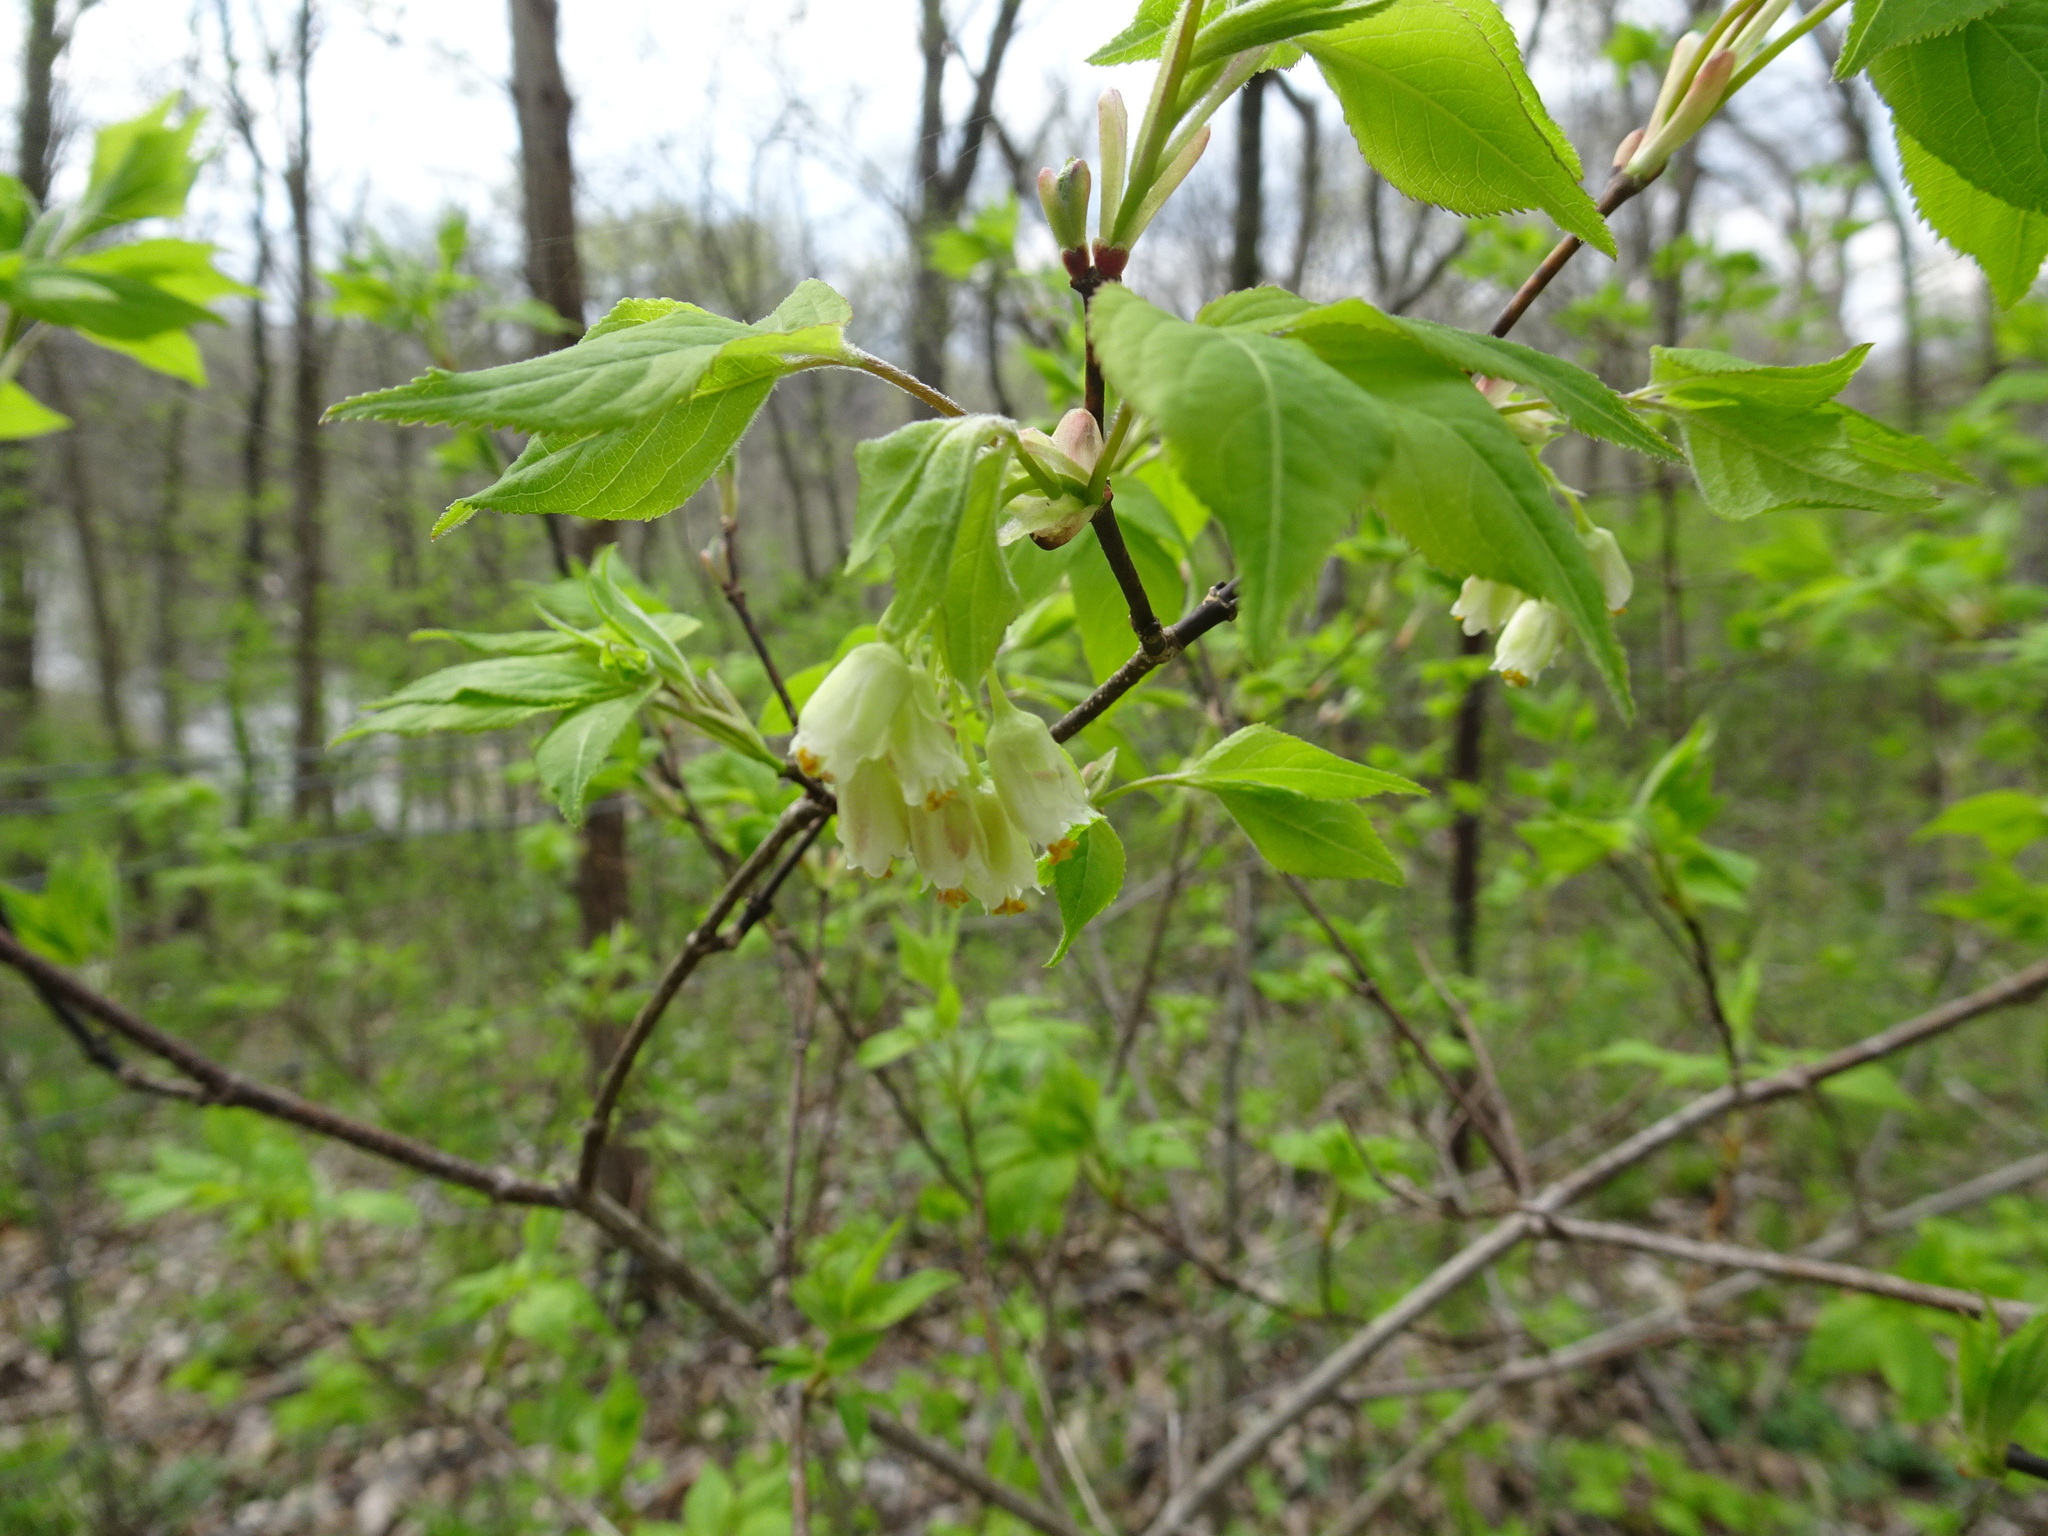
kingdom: Plantae
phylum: Tracheophyta
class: Magnoliopsida
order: Crossosomatales
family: Staphyleaceae
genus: Staphylea
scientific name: Staphylea trifolia
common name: American bladdernut
